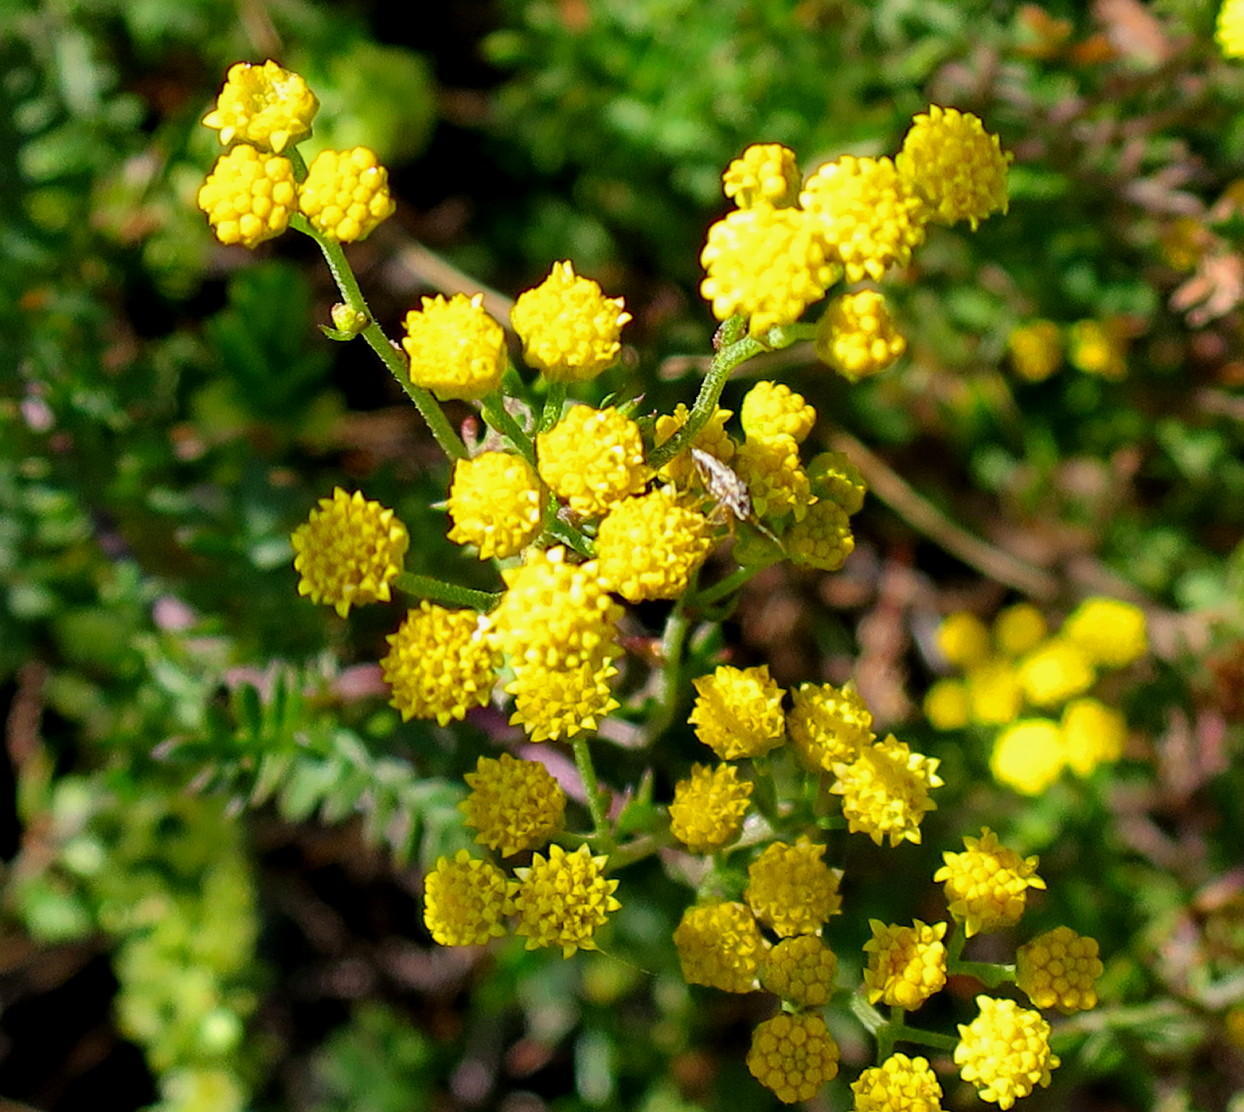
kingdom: Plantae
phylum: Tracheophyta
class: Magnoliopsida
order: Asterales
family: Asteraceae
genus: Hippia
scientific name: Hippia frutescens
